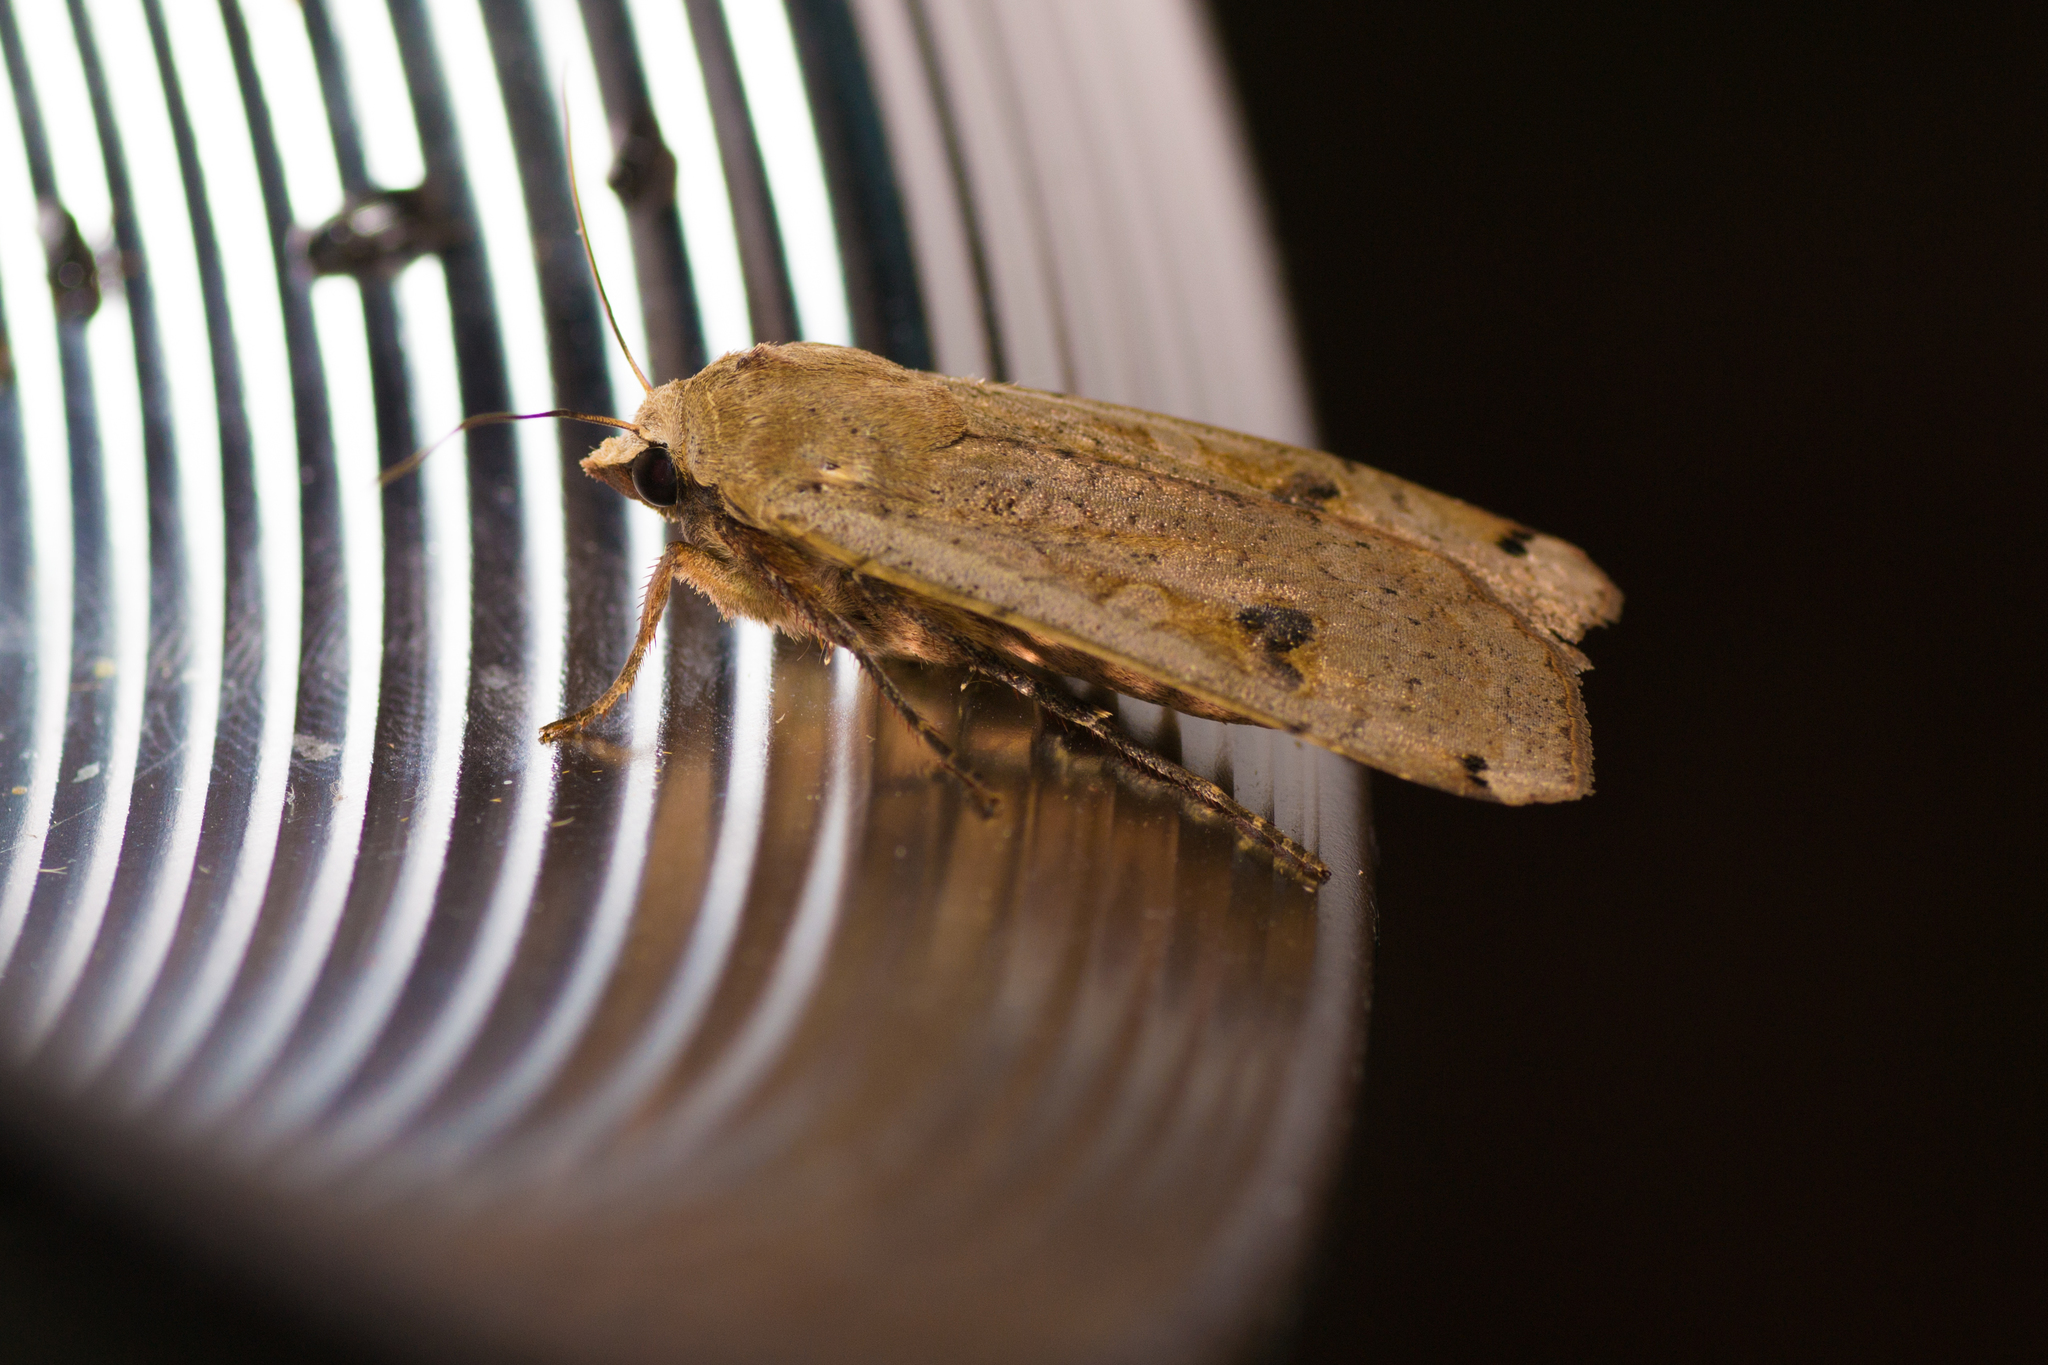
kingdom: Animalia
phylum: Arthropoda
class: Insecta
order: Lepidoptera
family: Noctuidae
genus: Noctua
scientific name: Noctua pronuba
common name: Large yellow underwing
